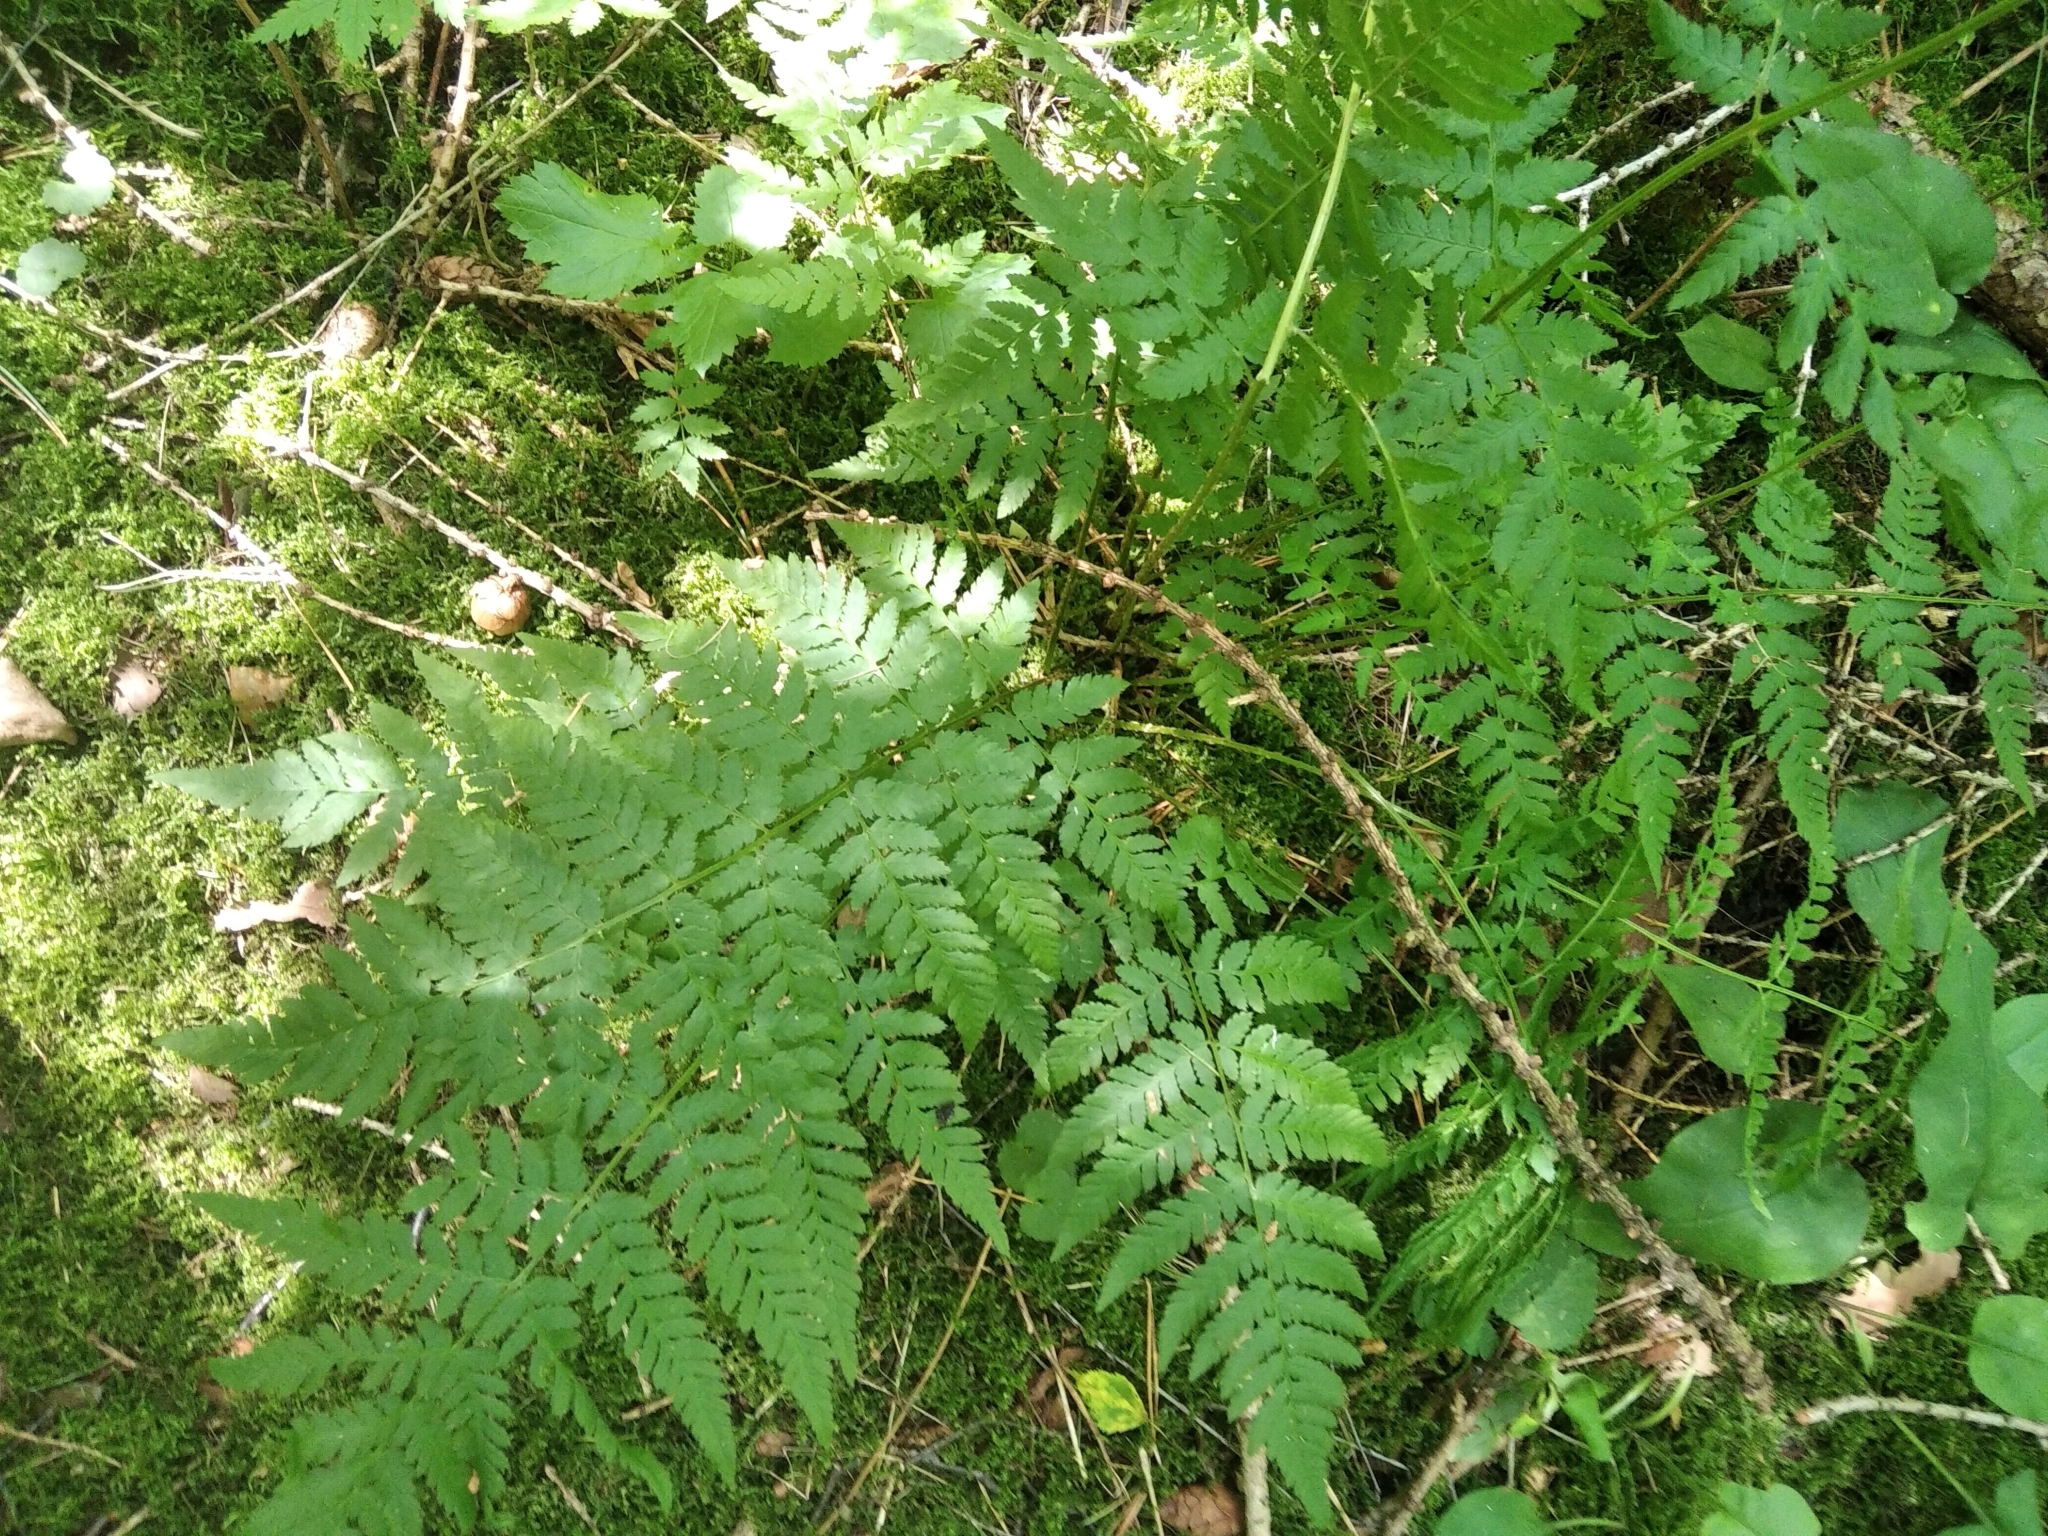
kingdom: Plantae
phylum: Tracheophyta
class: Polypodiopsida
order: Polypodiales
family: Dryopteridaceae
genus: Dryopteris
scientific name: Dryopteris carthusiana
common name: Narrow buckler-fern
